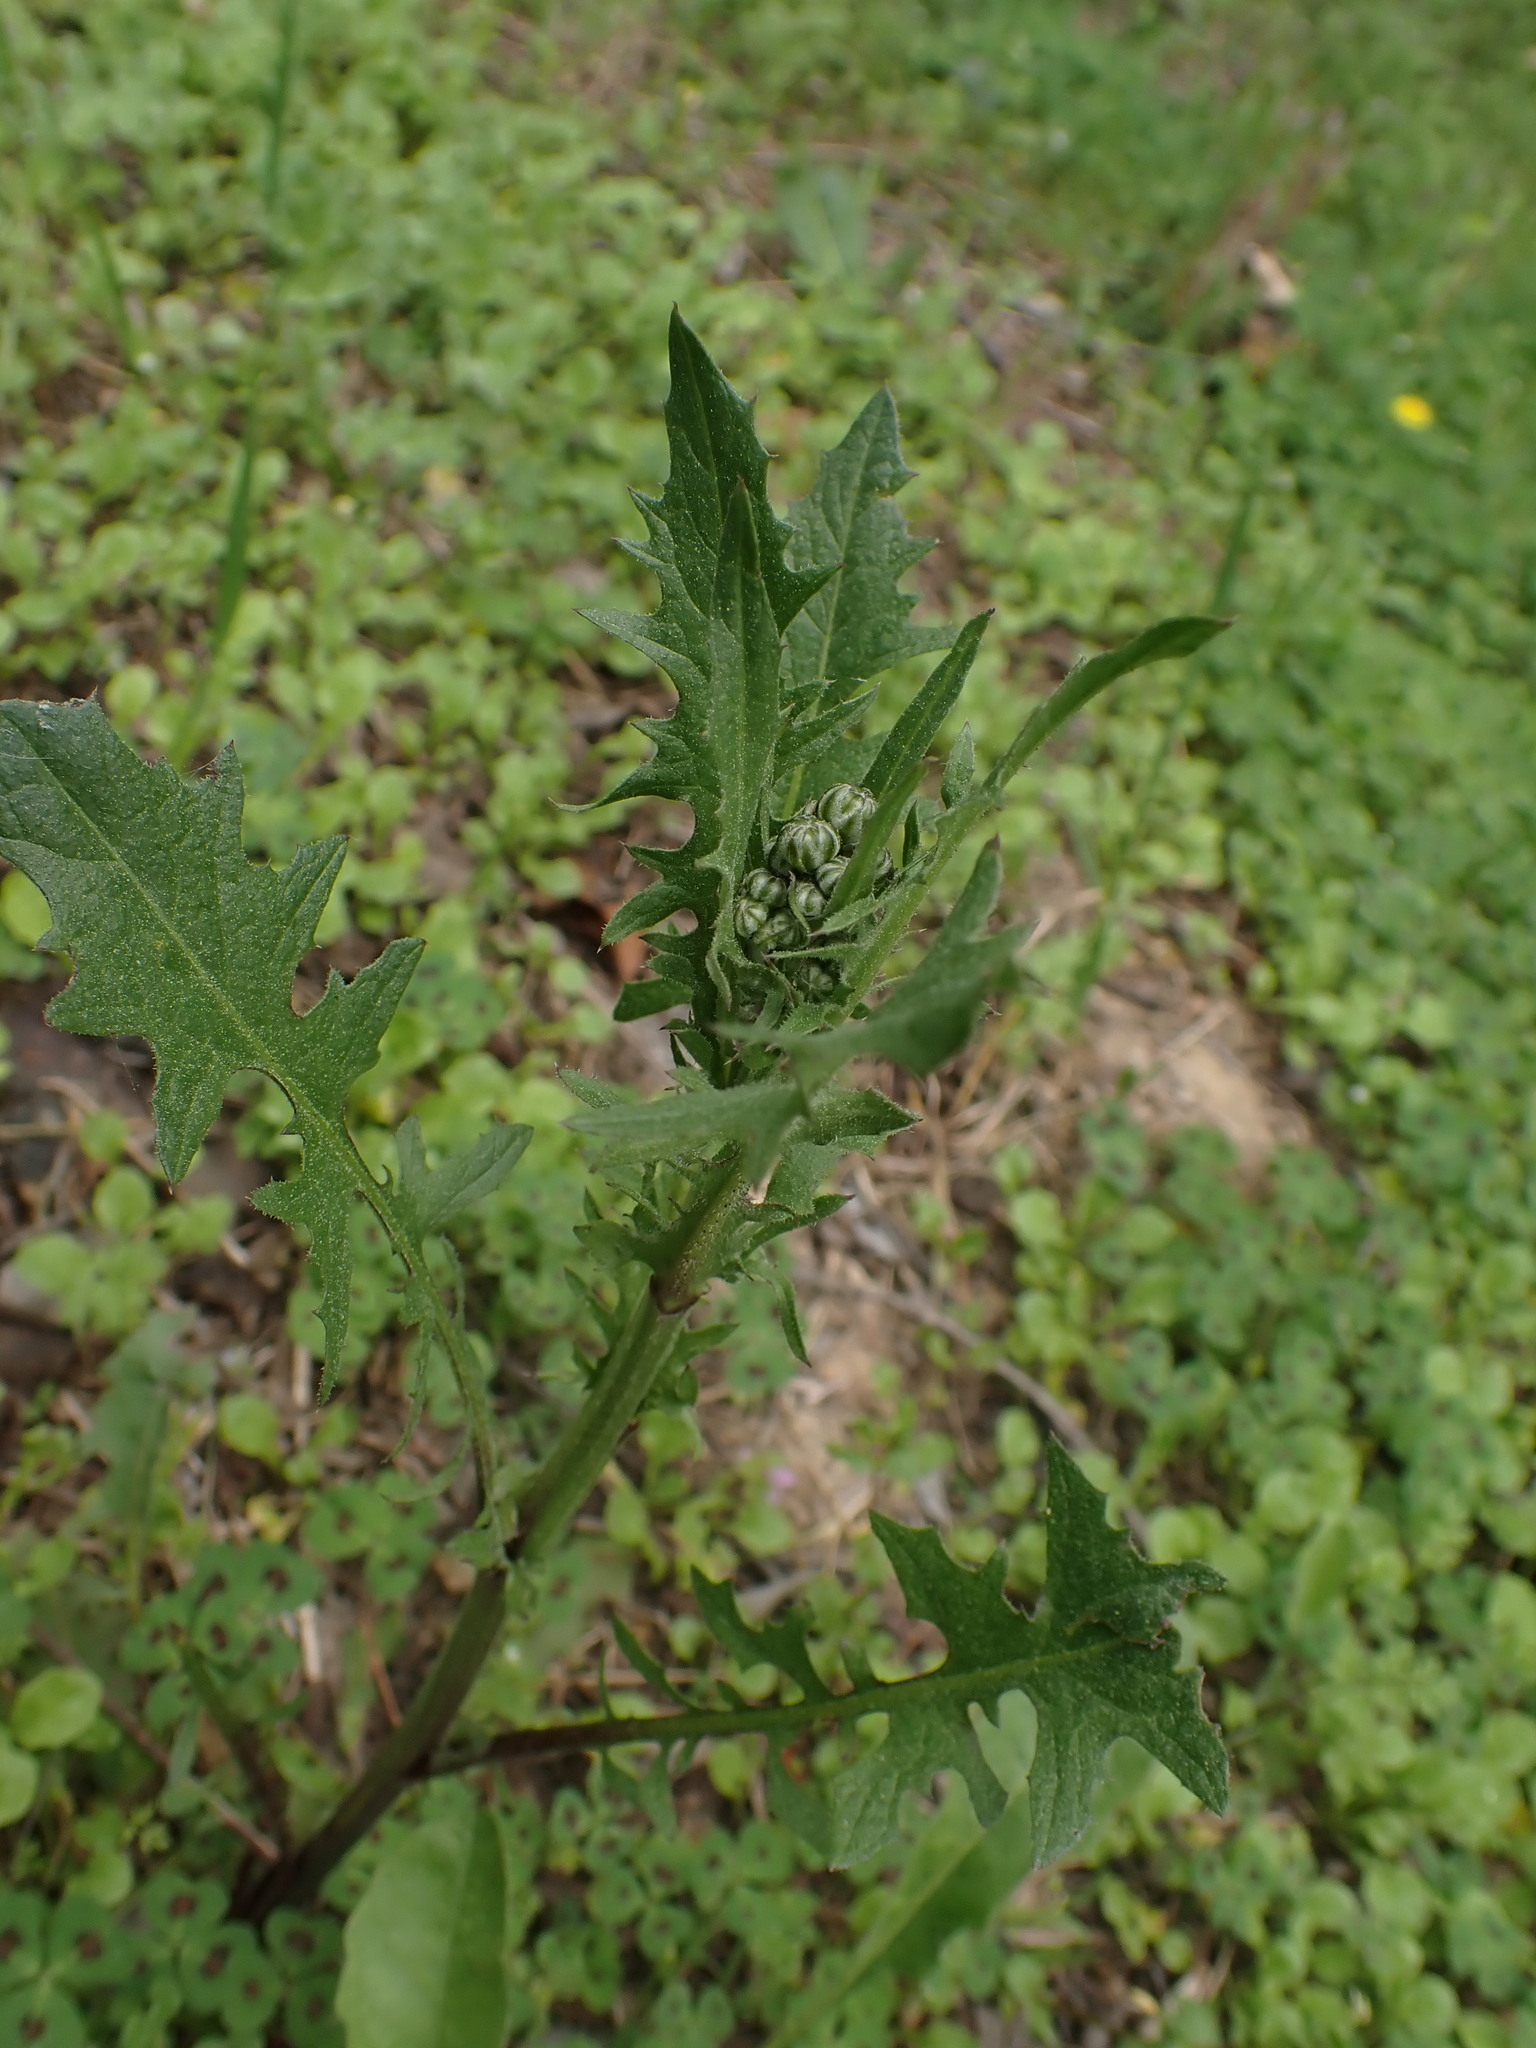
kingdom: Plantae
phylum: Tracheophyta
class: Magnoliopsida
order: Asterales
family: Asteraceae
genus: Crepis
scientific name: Crepis vesicaria
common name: Beaked hawksbeard
